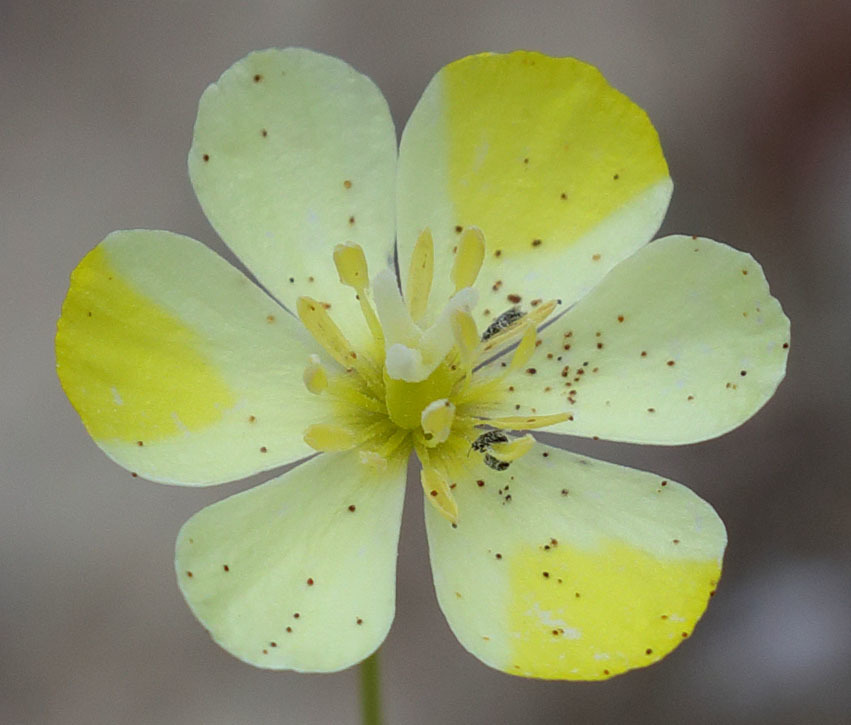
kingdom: Plantae
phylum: Tracheophyta
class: Magnoliopsida
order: Ranunculales
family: Papaveraceae
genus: Platystigma
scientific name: Platystigma lineare
